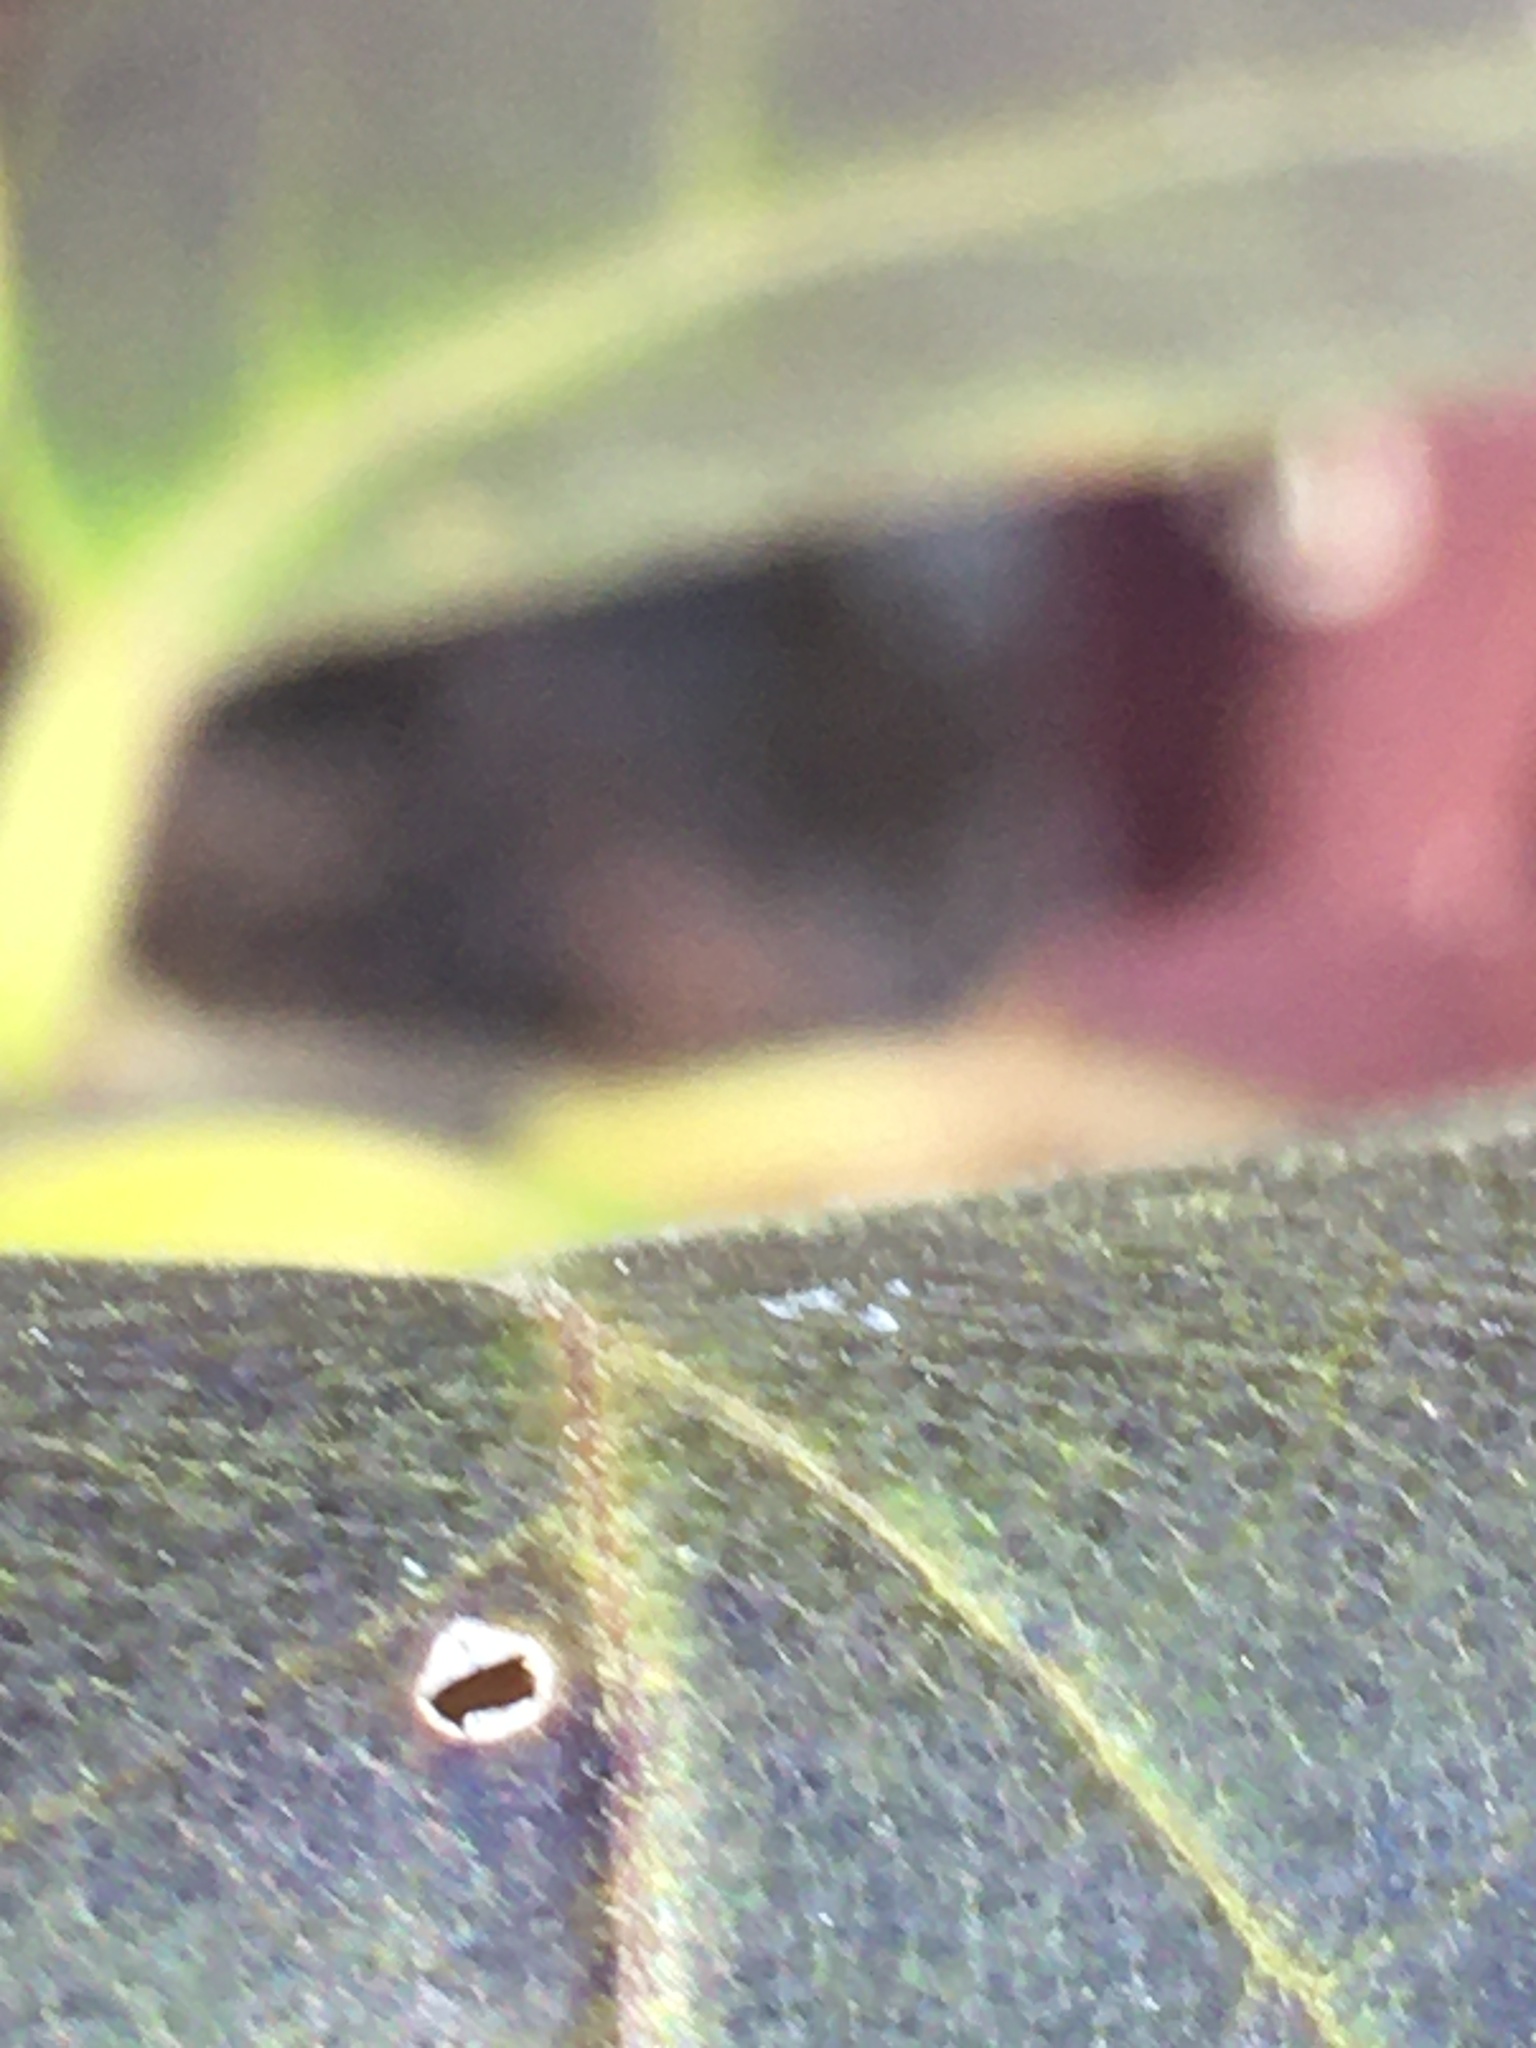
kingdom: Plantae
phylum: Tracheophyta
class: Magnoliopsida
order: Ericales
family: Symplocaceae
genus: Symplocos
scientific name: Symplocos tinctoria
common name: Horse-sugar
